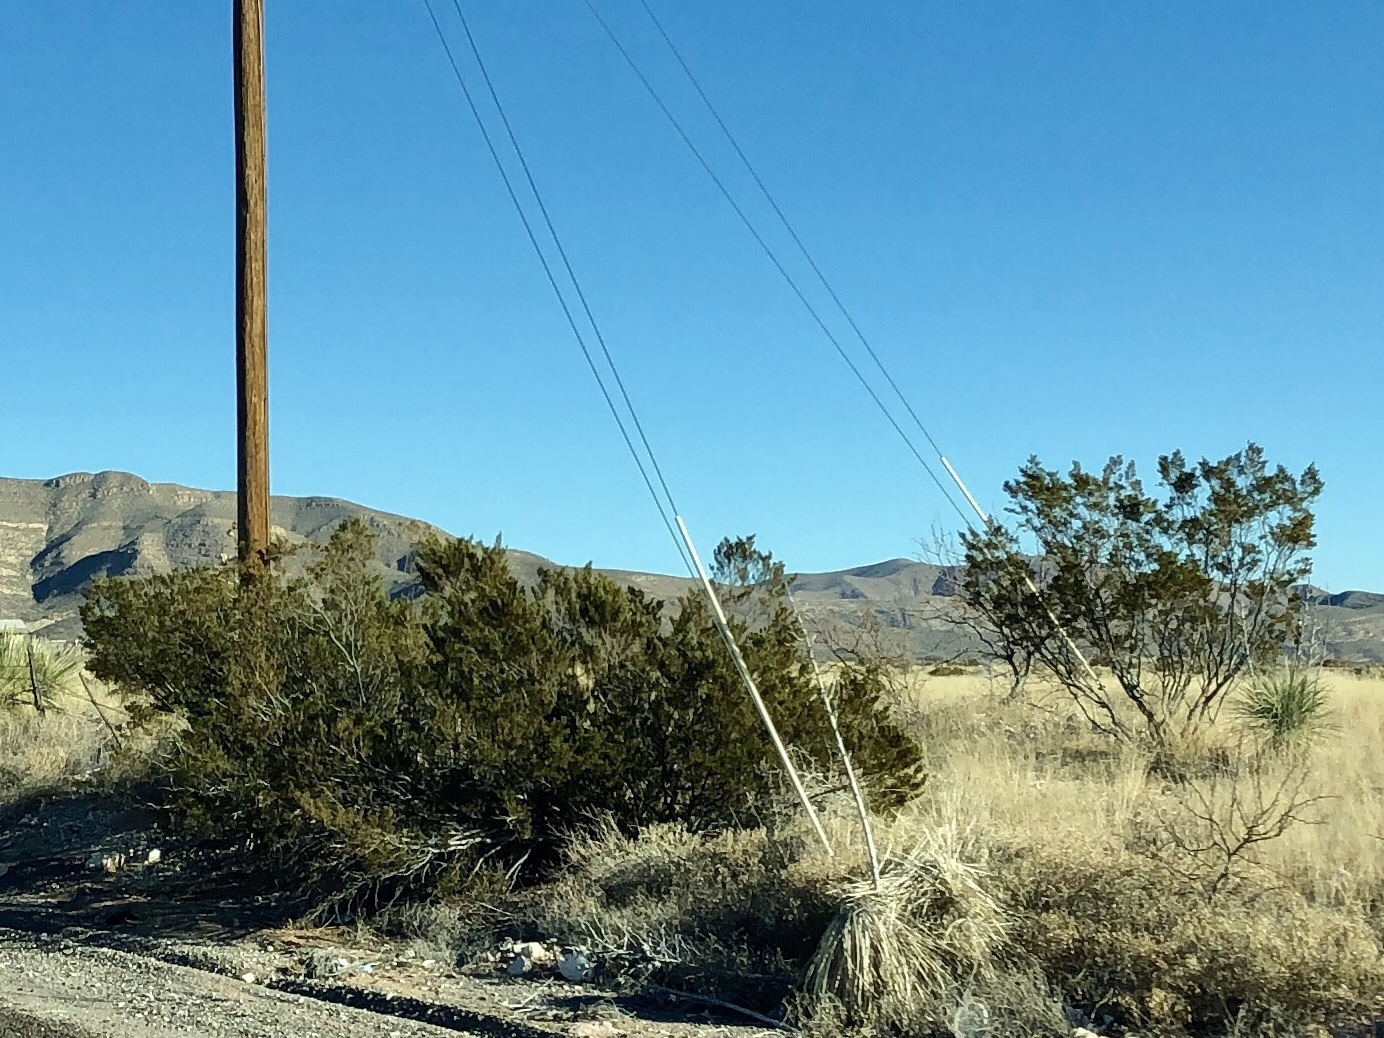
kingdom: Plantae
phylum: Tracheophyta
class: Magnoliopsida
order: Zygophyllales
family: Zygophyllaceae
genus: Larrea
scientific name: Larrea tridentata
